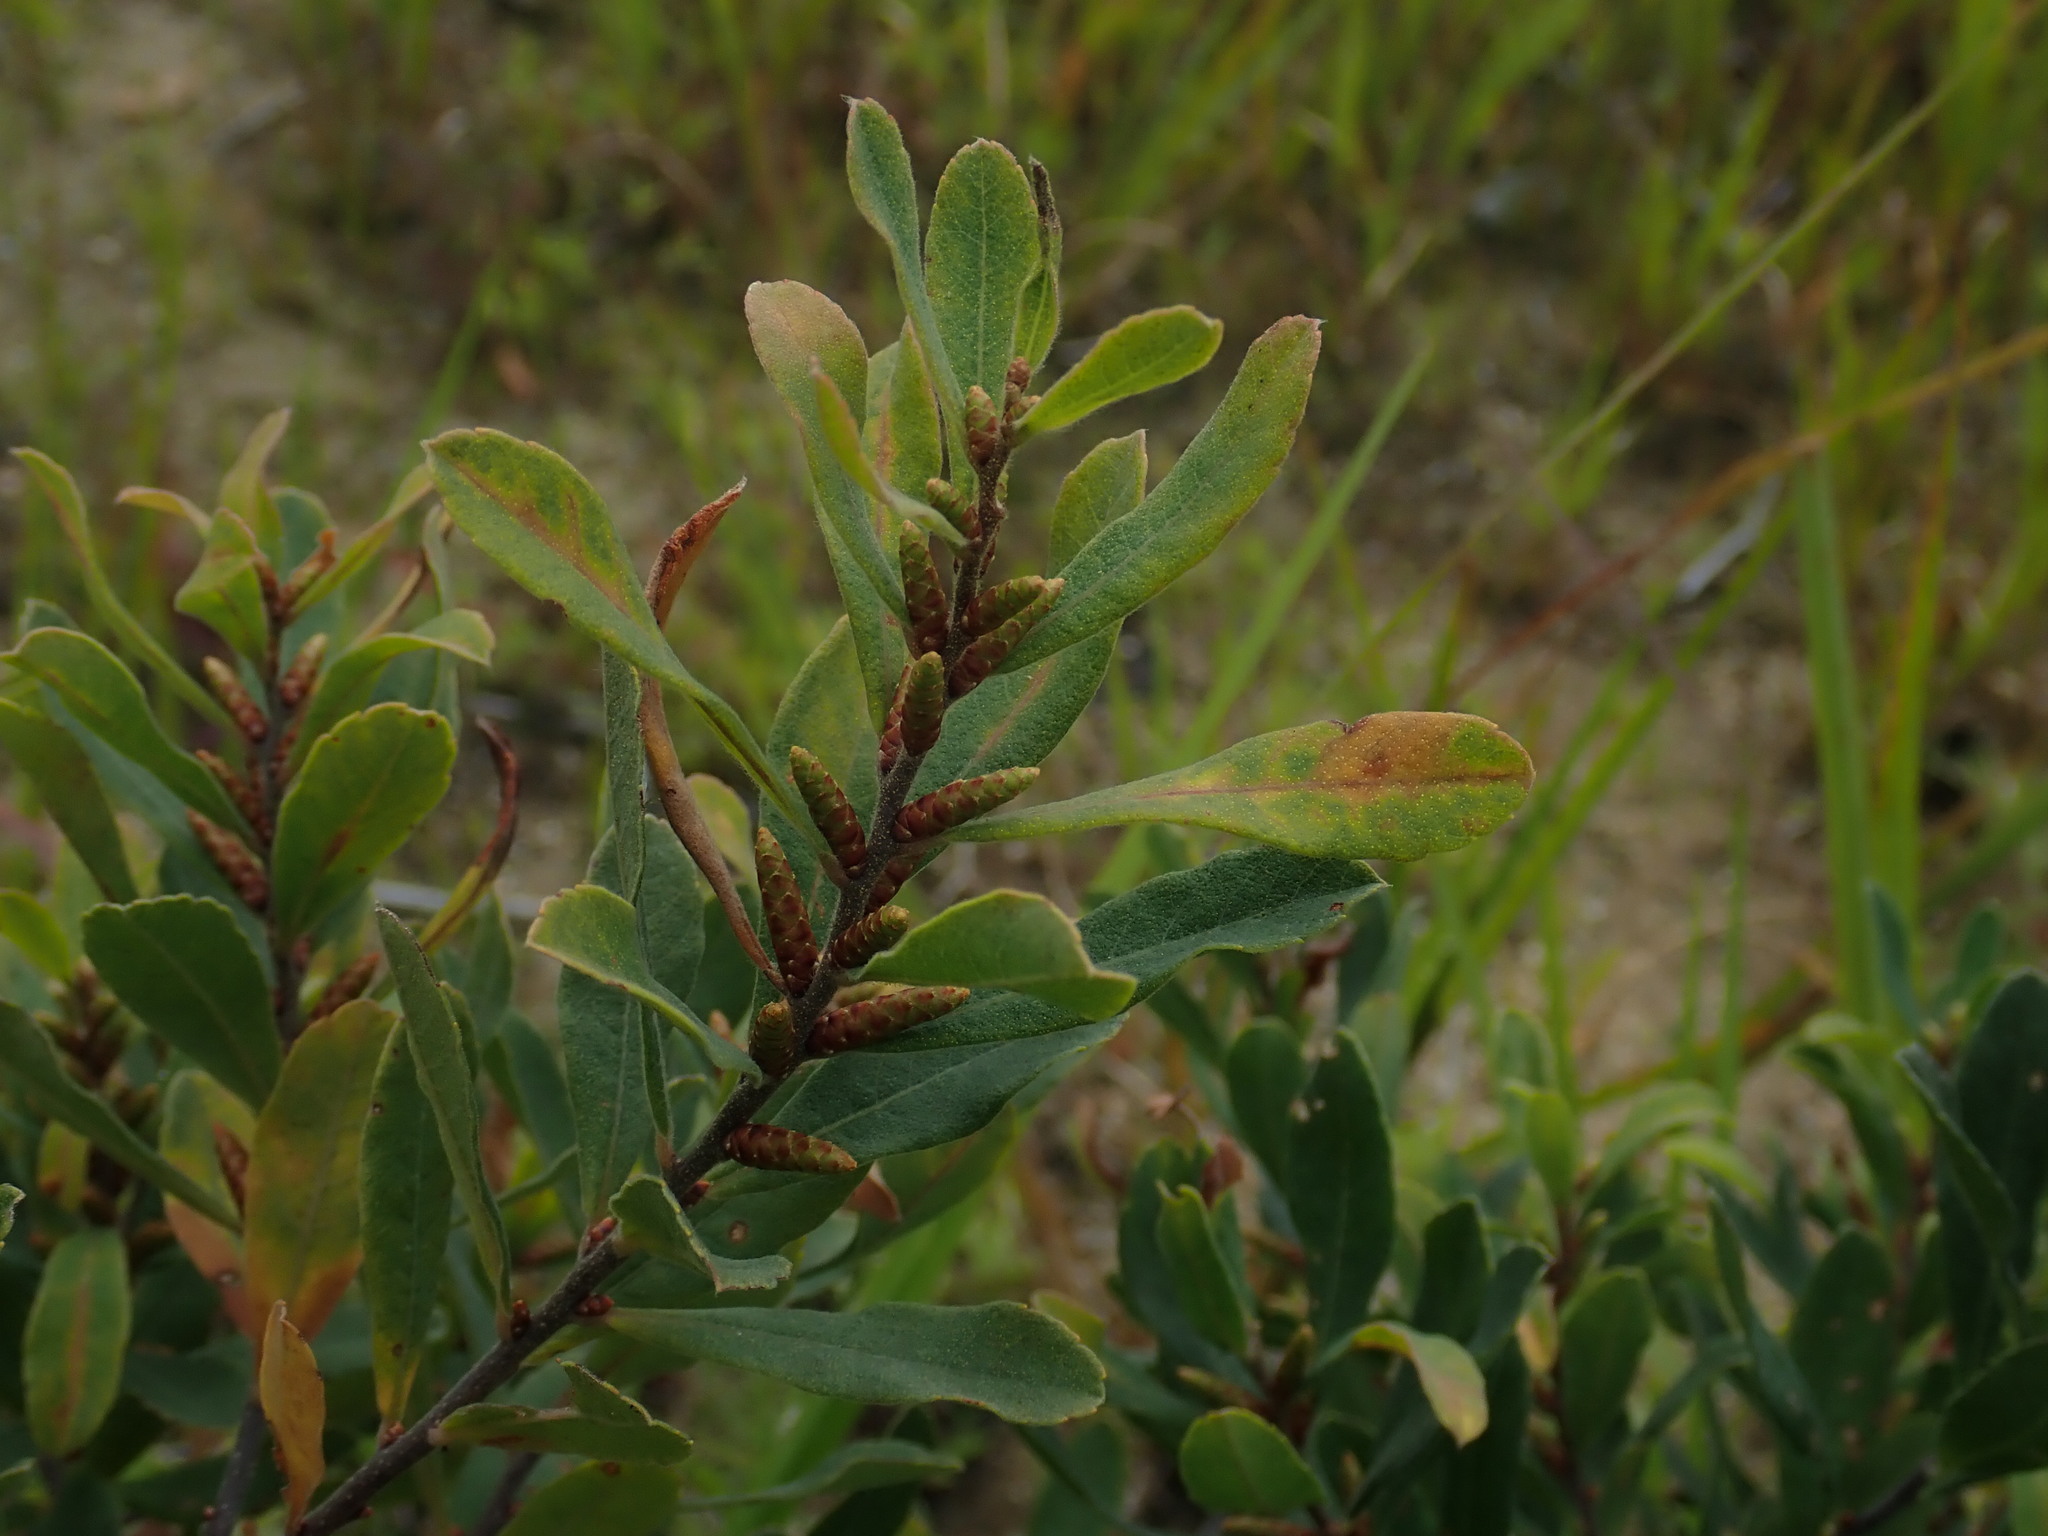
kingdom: Plantae
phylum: Tracheophyta
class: Magnoliopsida
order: Fagales
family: Myricaceae
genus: Myrica
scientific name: Myrica gale
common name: Sweet gale
